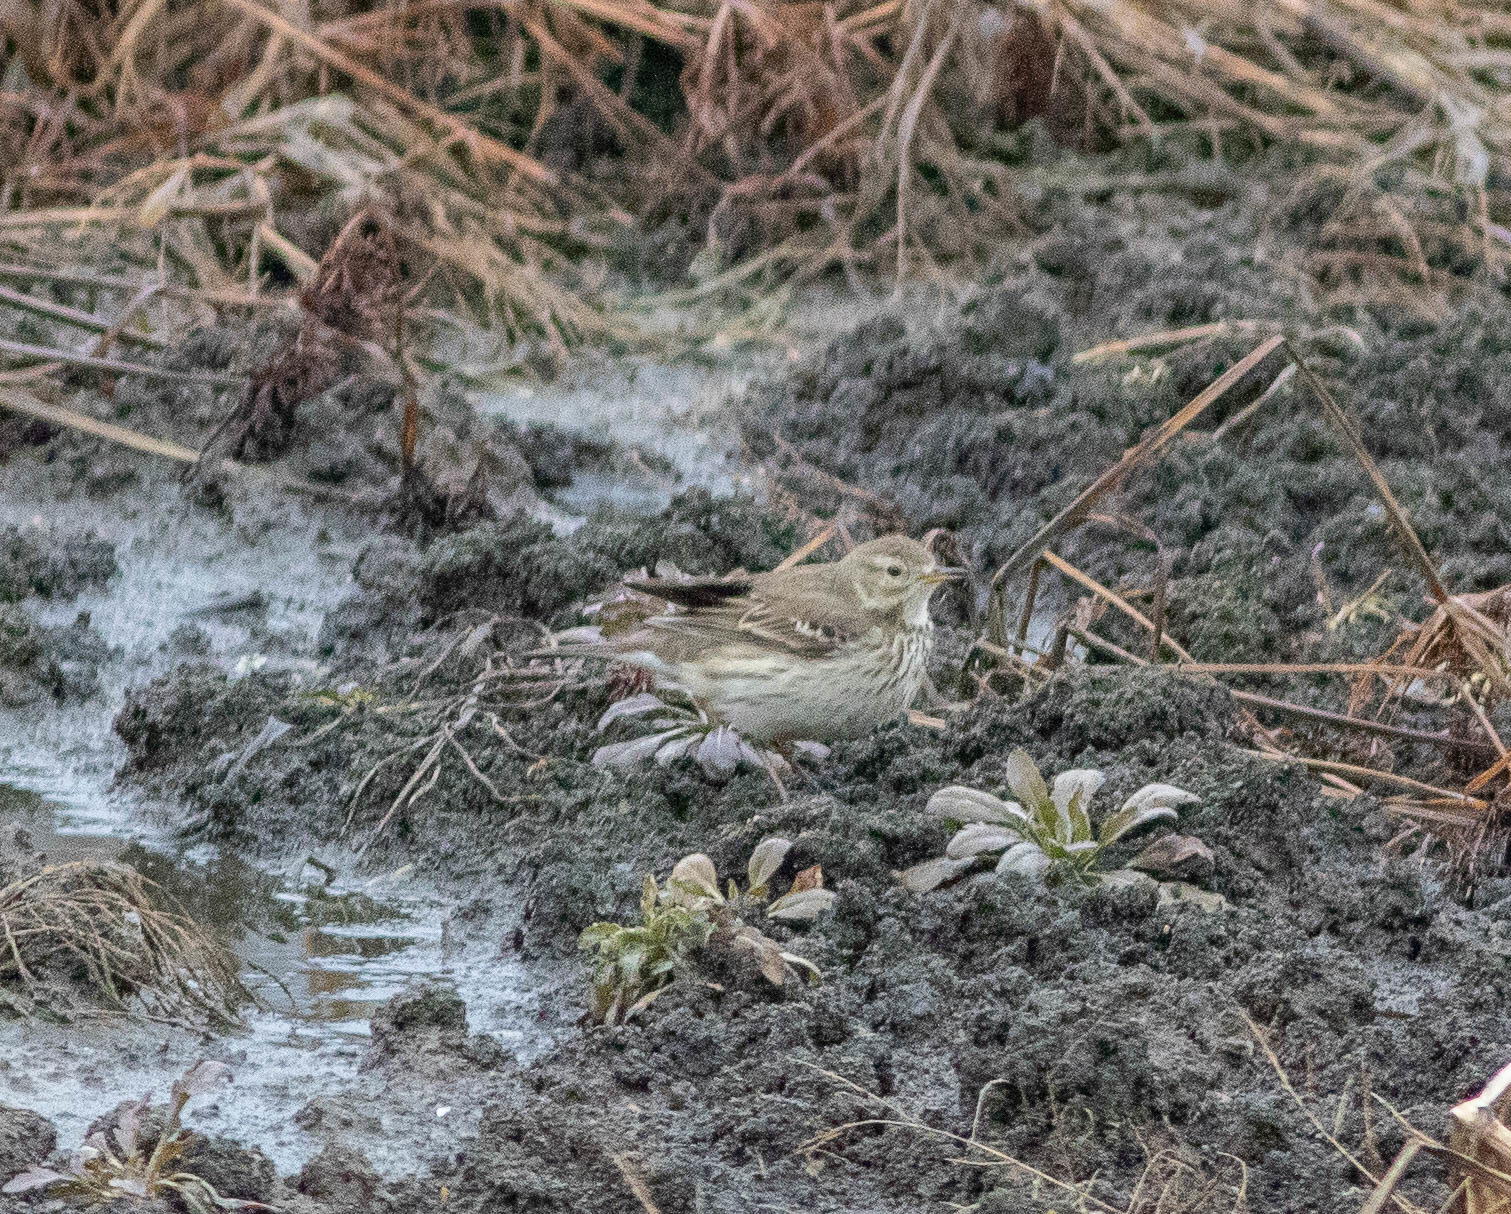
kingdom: Animalia
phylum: Chordata
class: Aves
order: Passeriformes
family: Motacillidae
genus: Anthus
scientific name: Anthus rubescens
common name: Buff-bellied pipit
